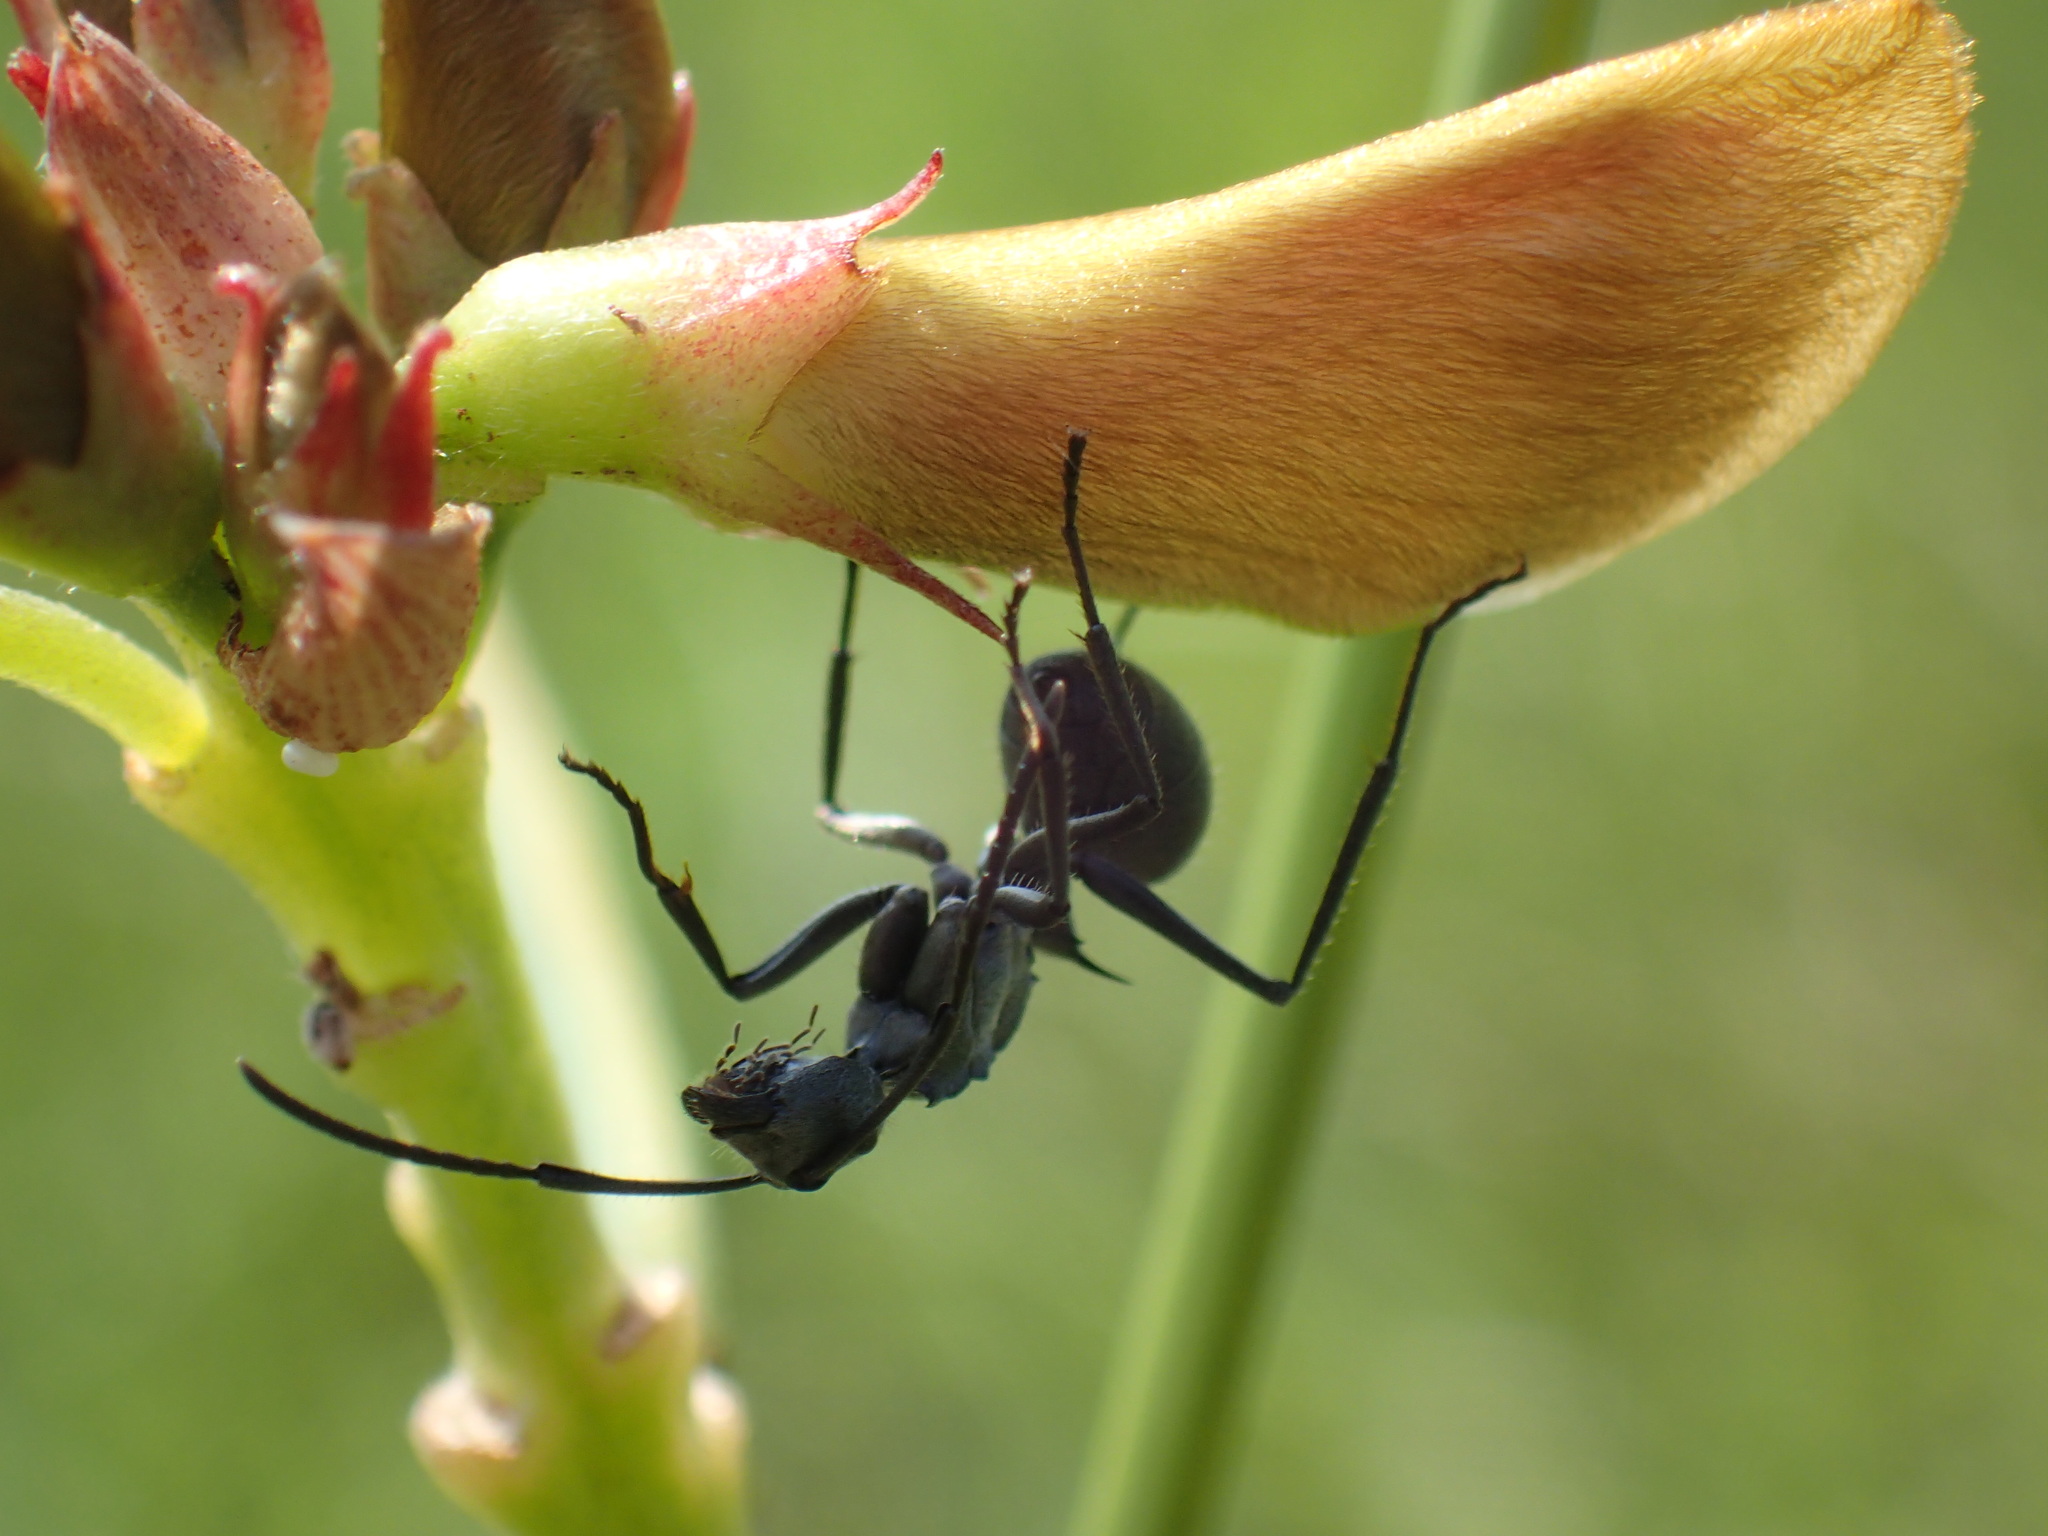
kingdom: Animalia
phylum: Arthropoda
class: Insecta
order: Hymenoptera
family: Formicidae
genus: Polyrhachis
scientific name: Polyrhachis schistacea
